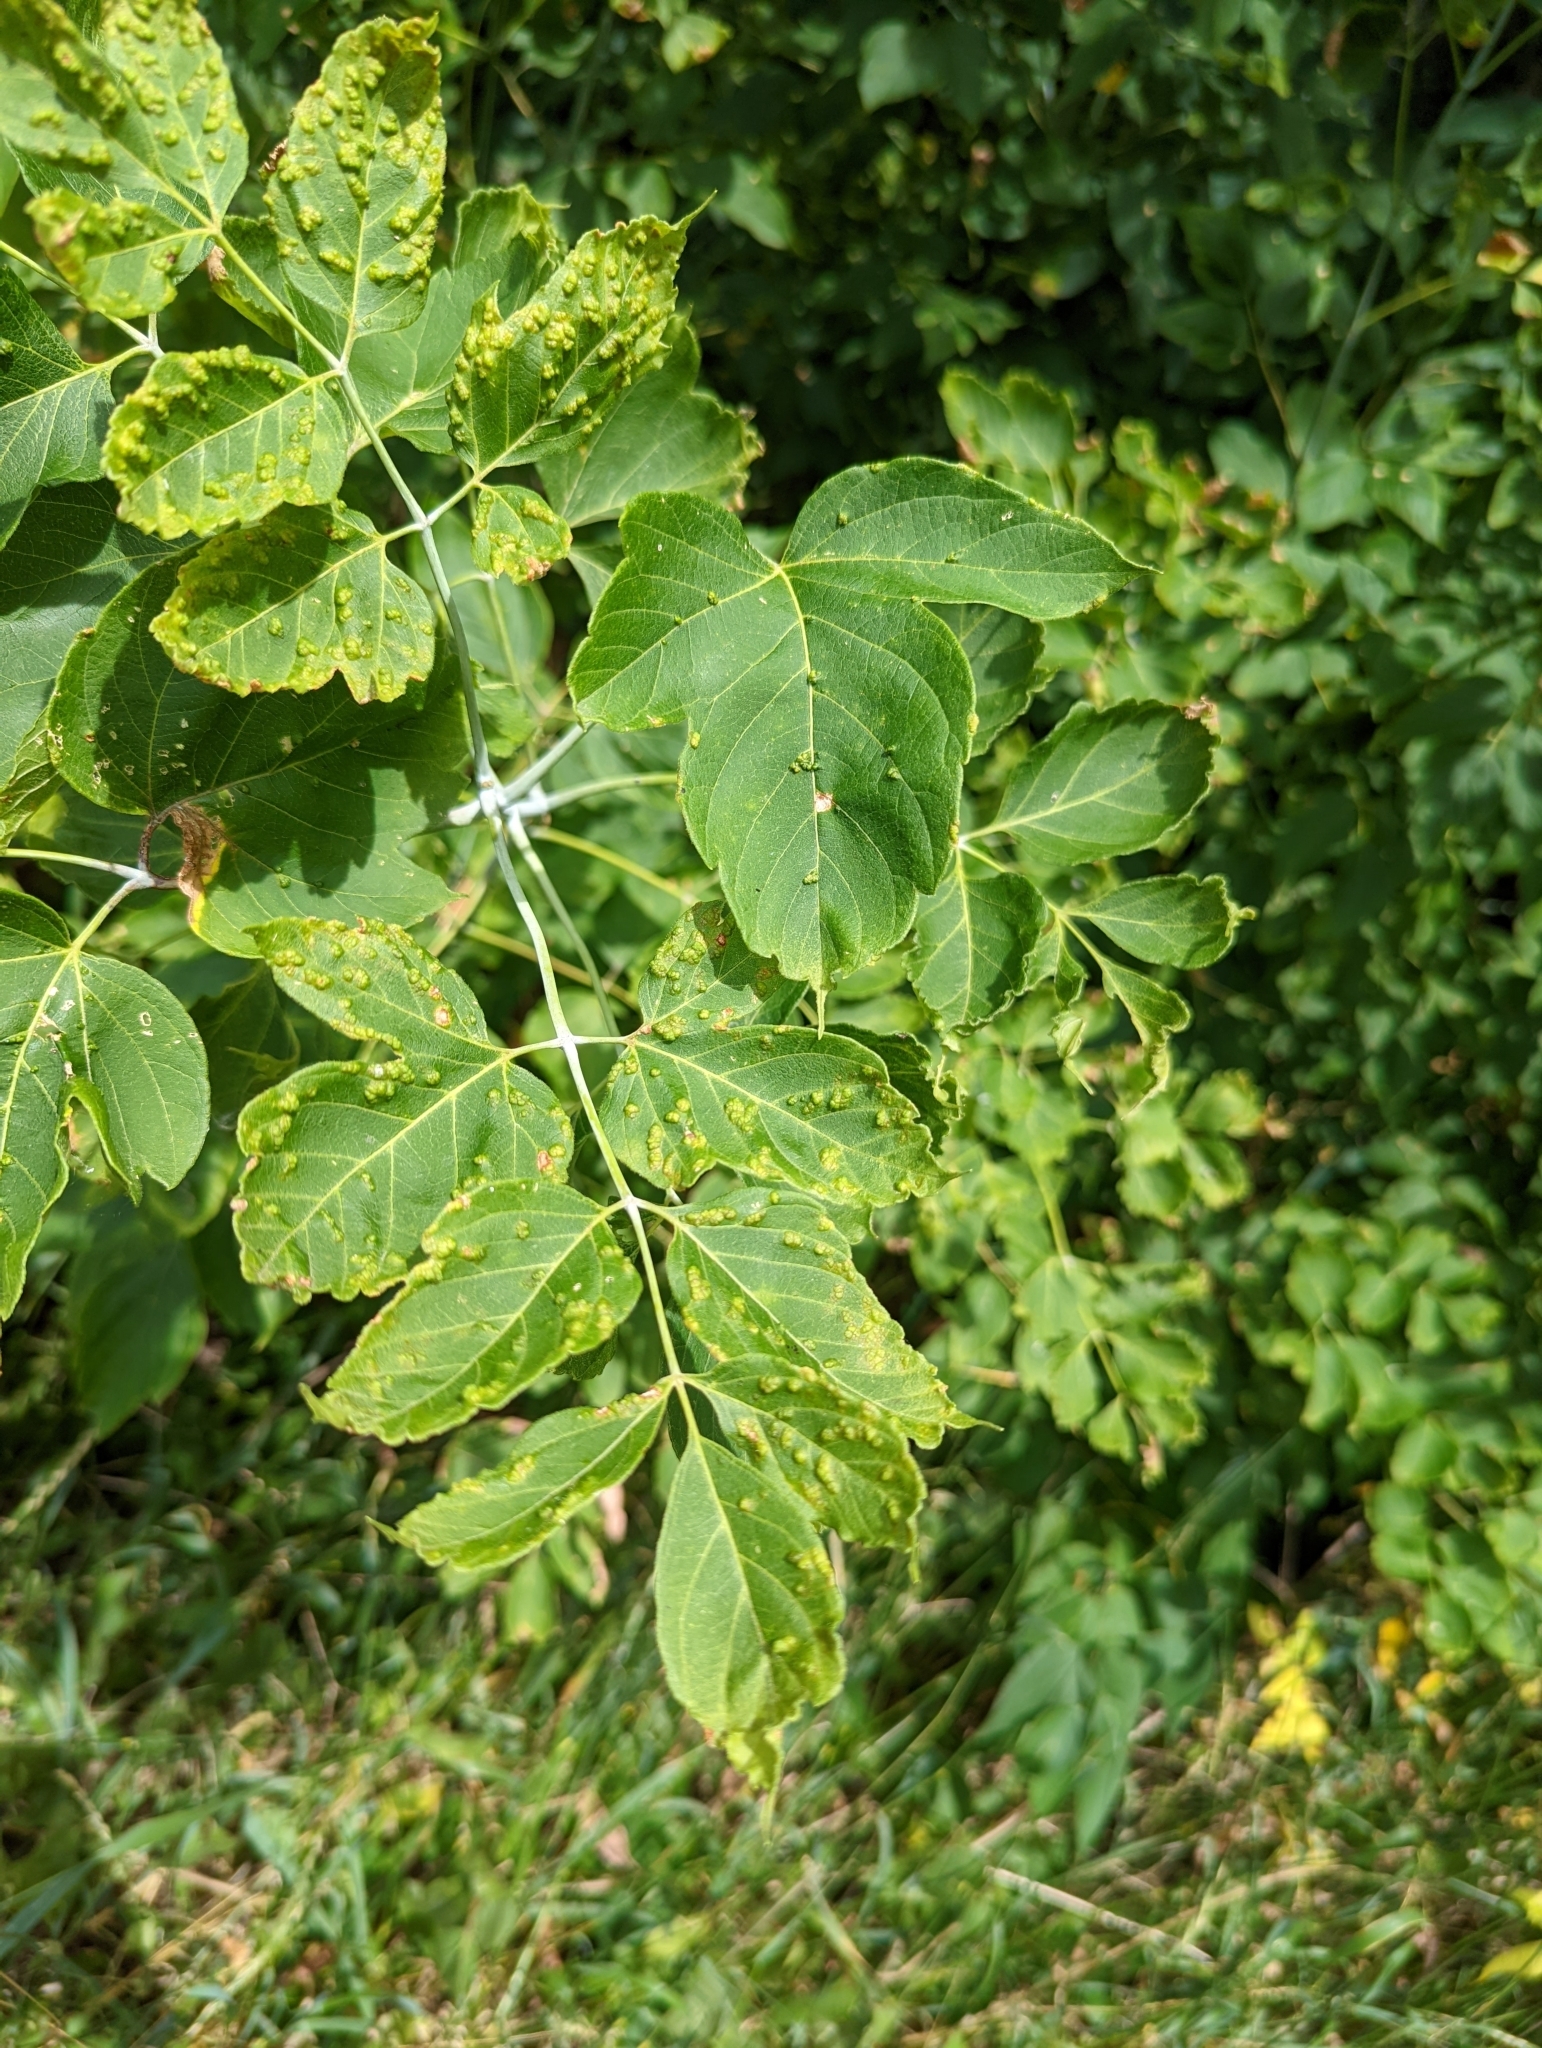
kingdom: Animalia
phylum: Arthropoda
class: Arachnida
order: Trombidiformes
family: Eriophyidae
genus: Aceria
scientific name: Aceria
